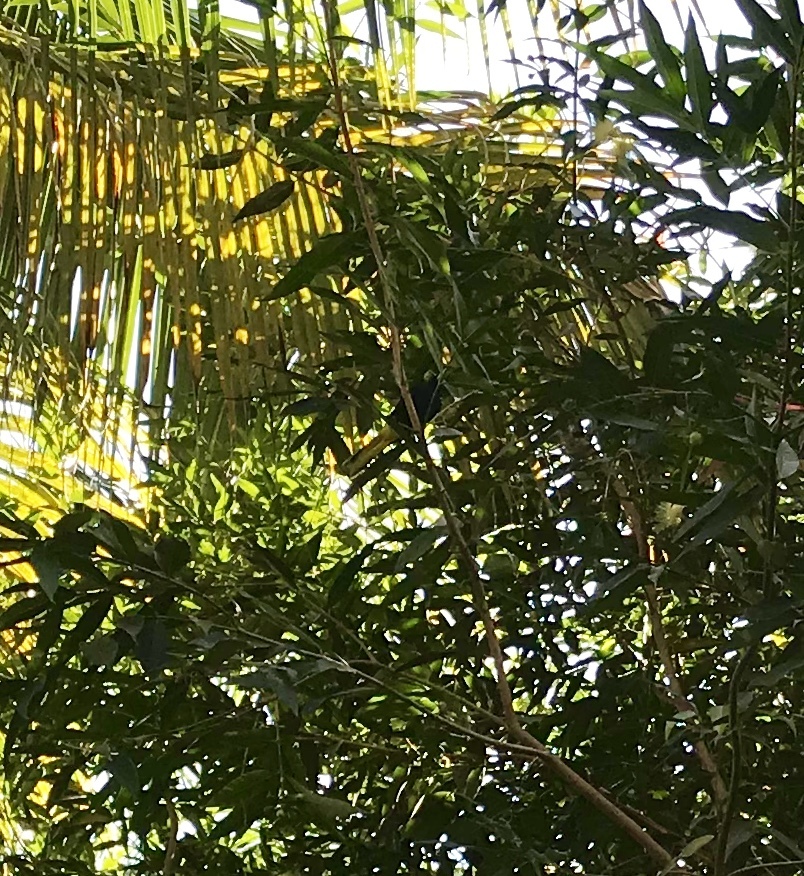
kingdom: Animalia
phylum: Chordata
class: Aves
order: Passeriformes
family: Icteridae
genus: Cacicus
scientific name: Cacicus melanicterus
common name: Yellow-winged cacique
